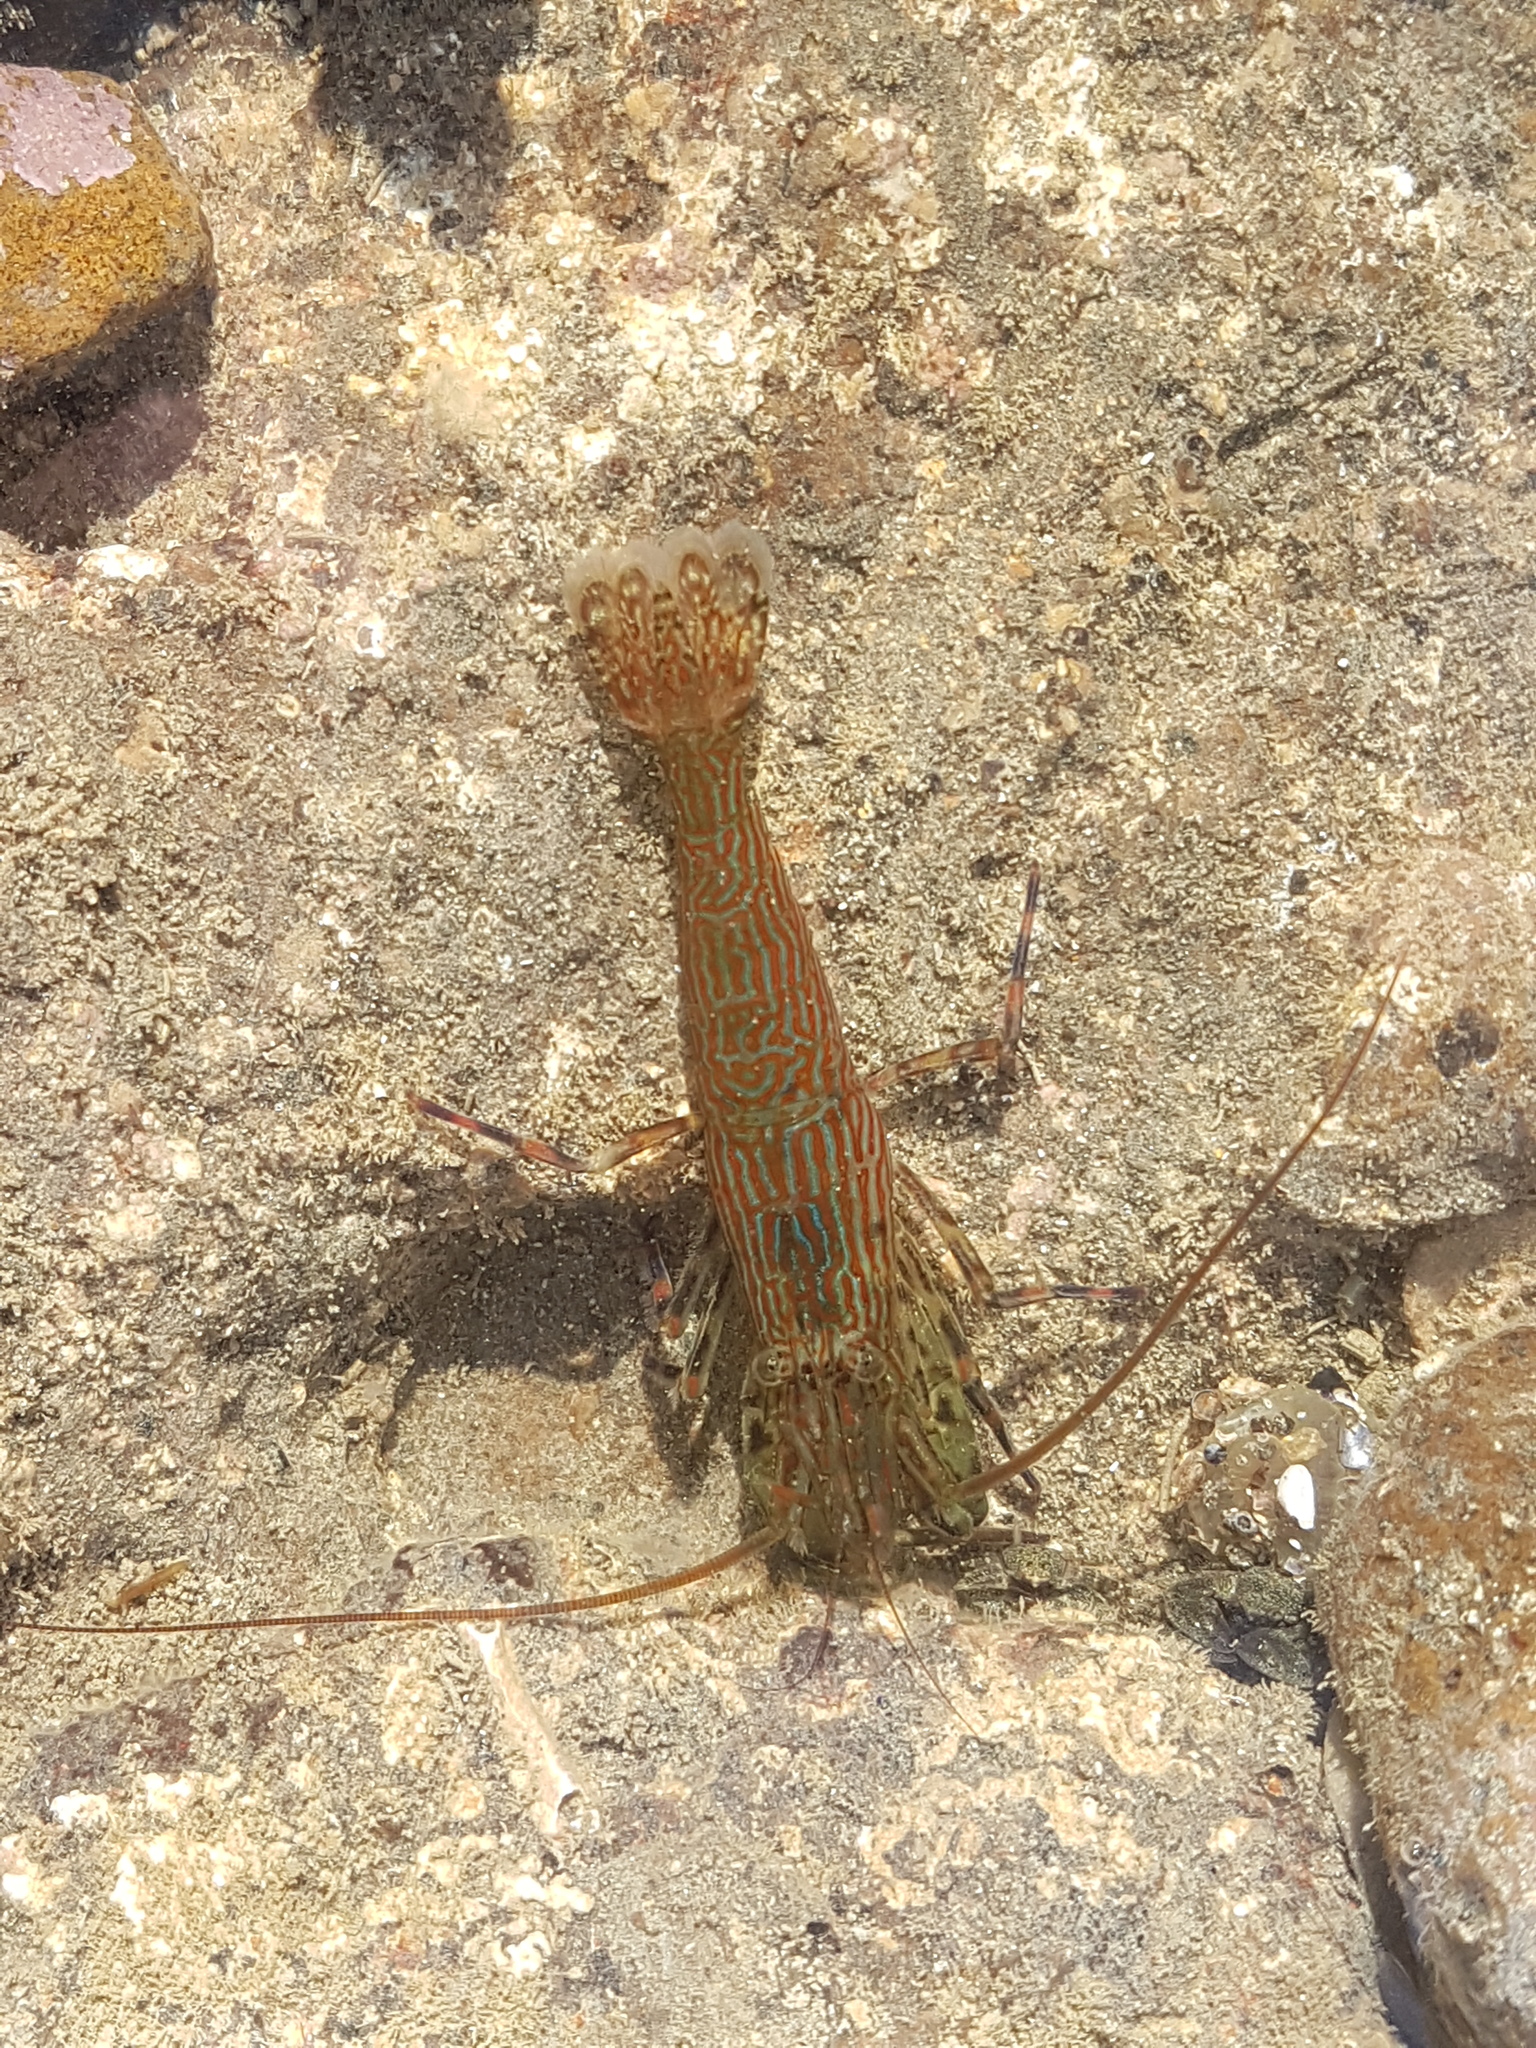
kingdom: Animalia
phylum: Arthropoda
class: Malacostraca
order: Decapoda
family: Hippolytidae
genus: Alope
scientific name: Alope spinifrons
